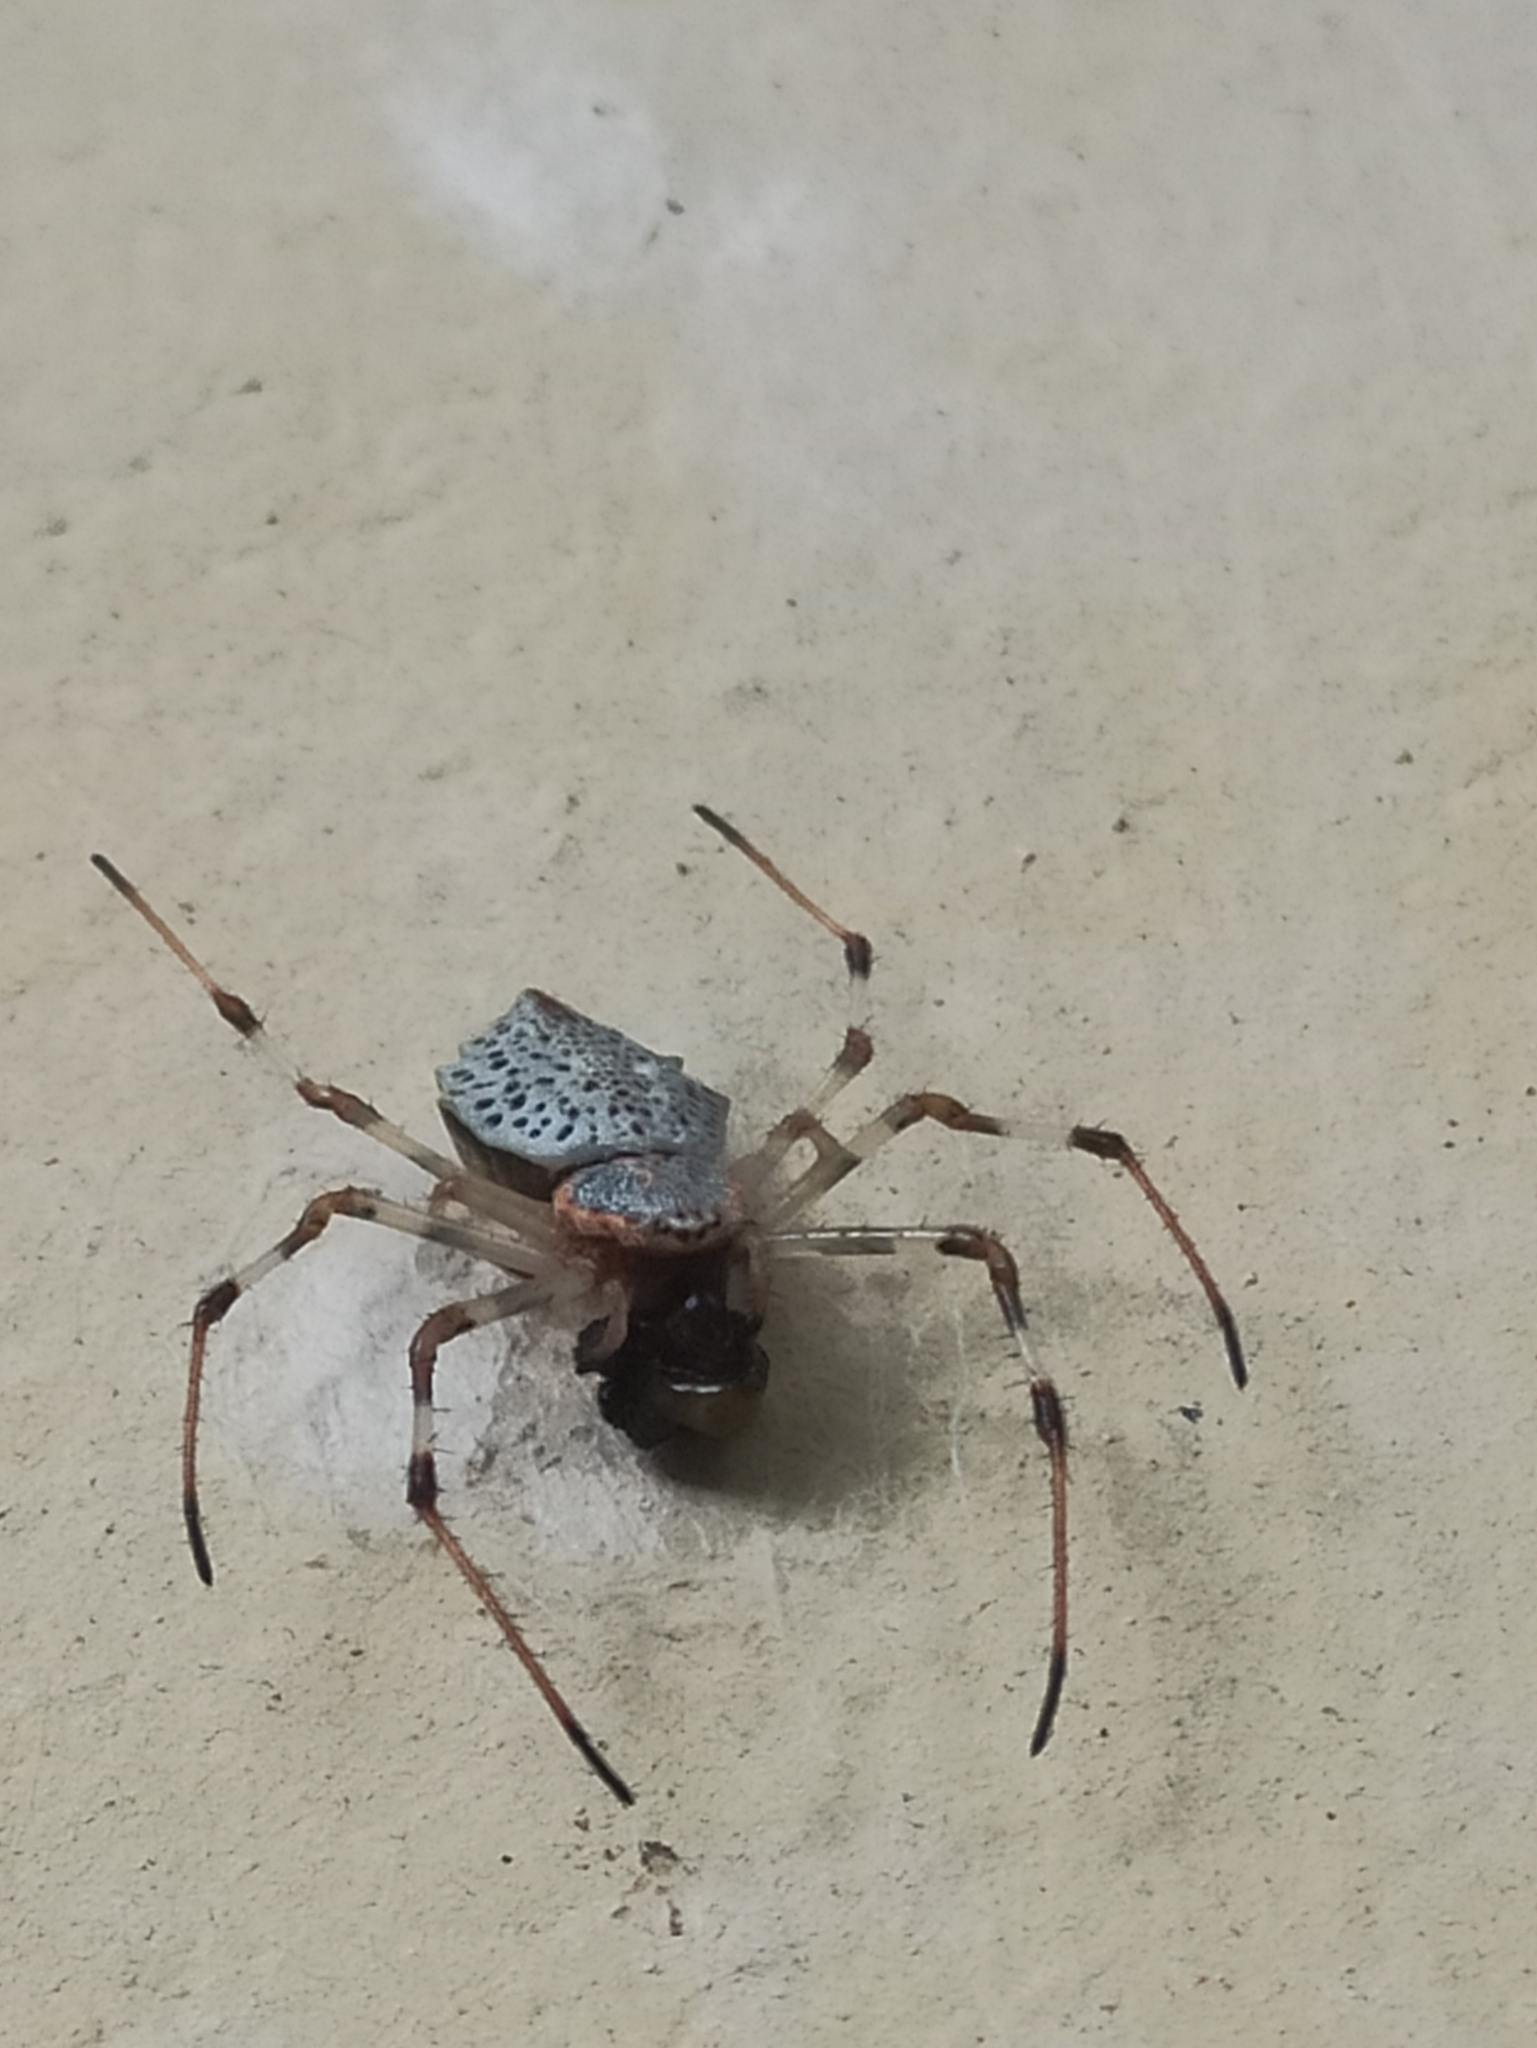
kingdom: Animalia
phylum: Arthropoda
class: Arachnida
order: Araneae
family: Araneidae
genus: Herennia
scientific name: Herennia multipuncta
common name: Spotted coin spider
